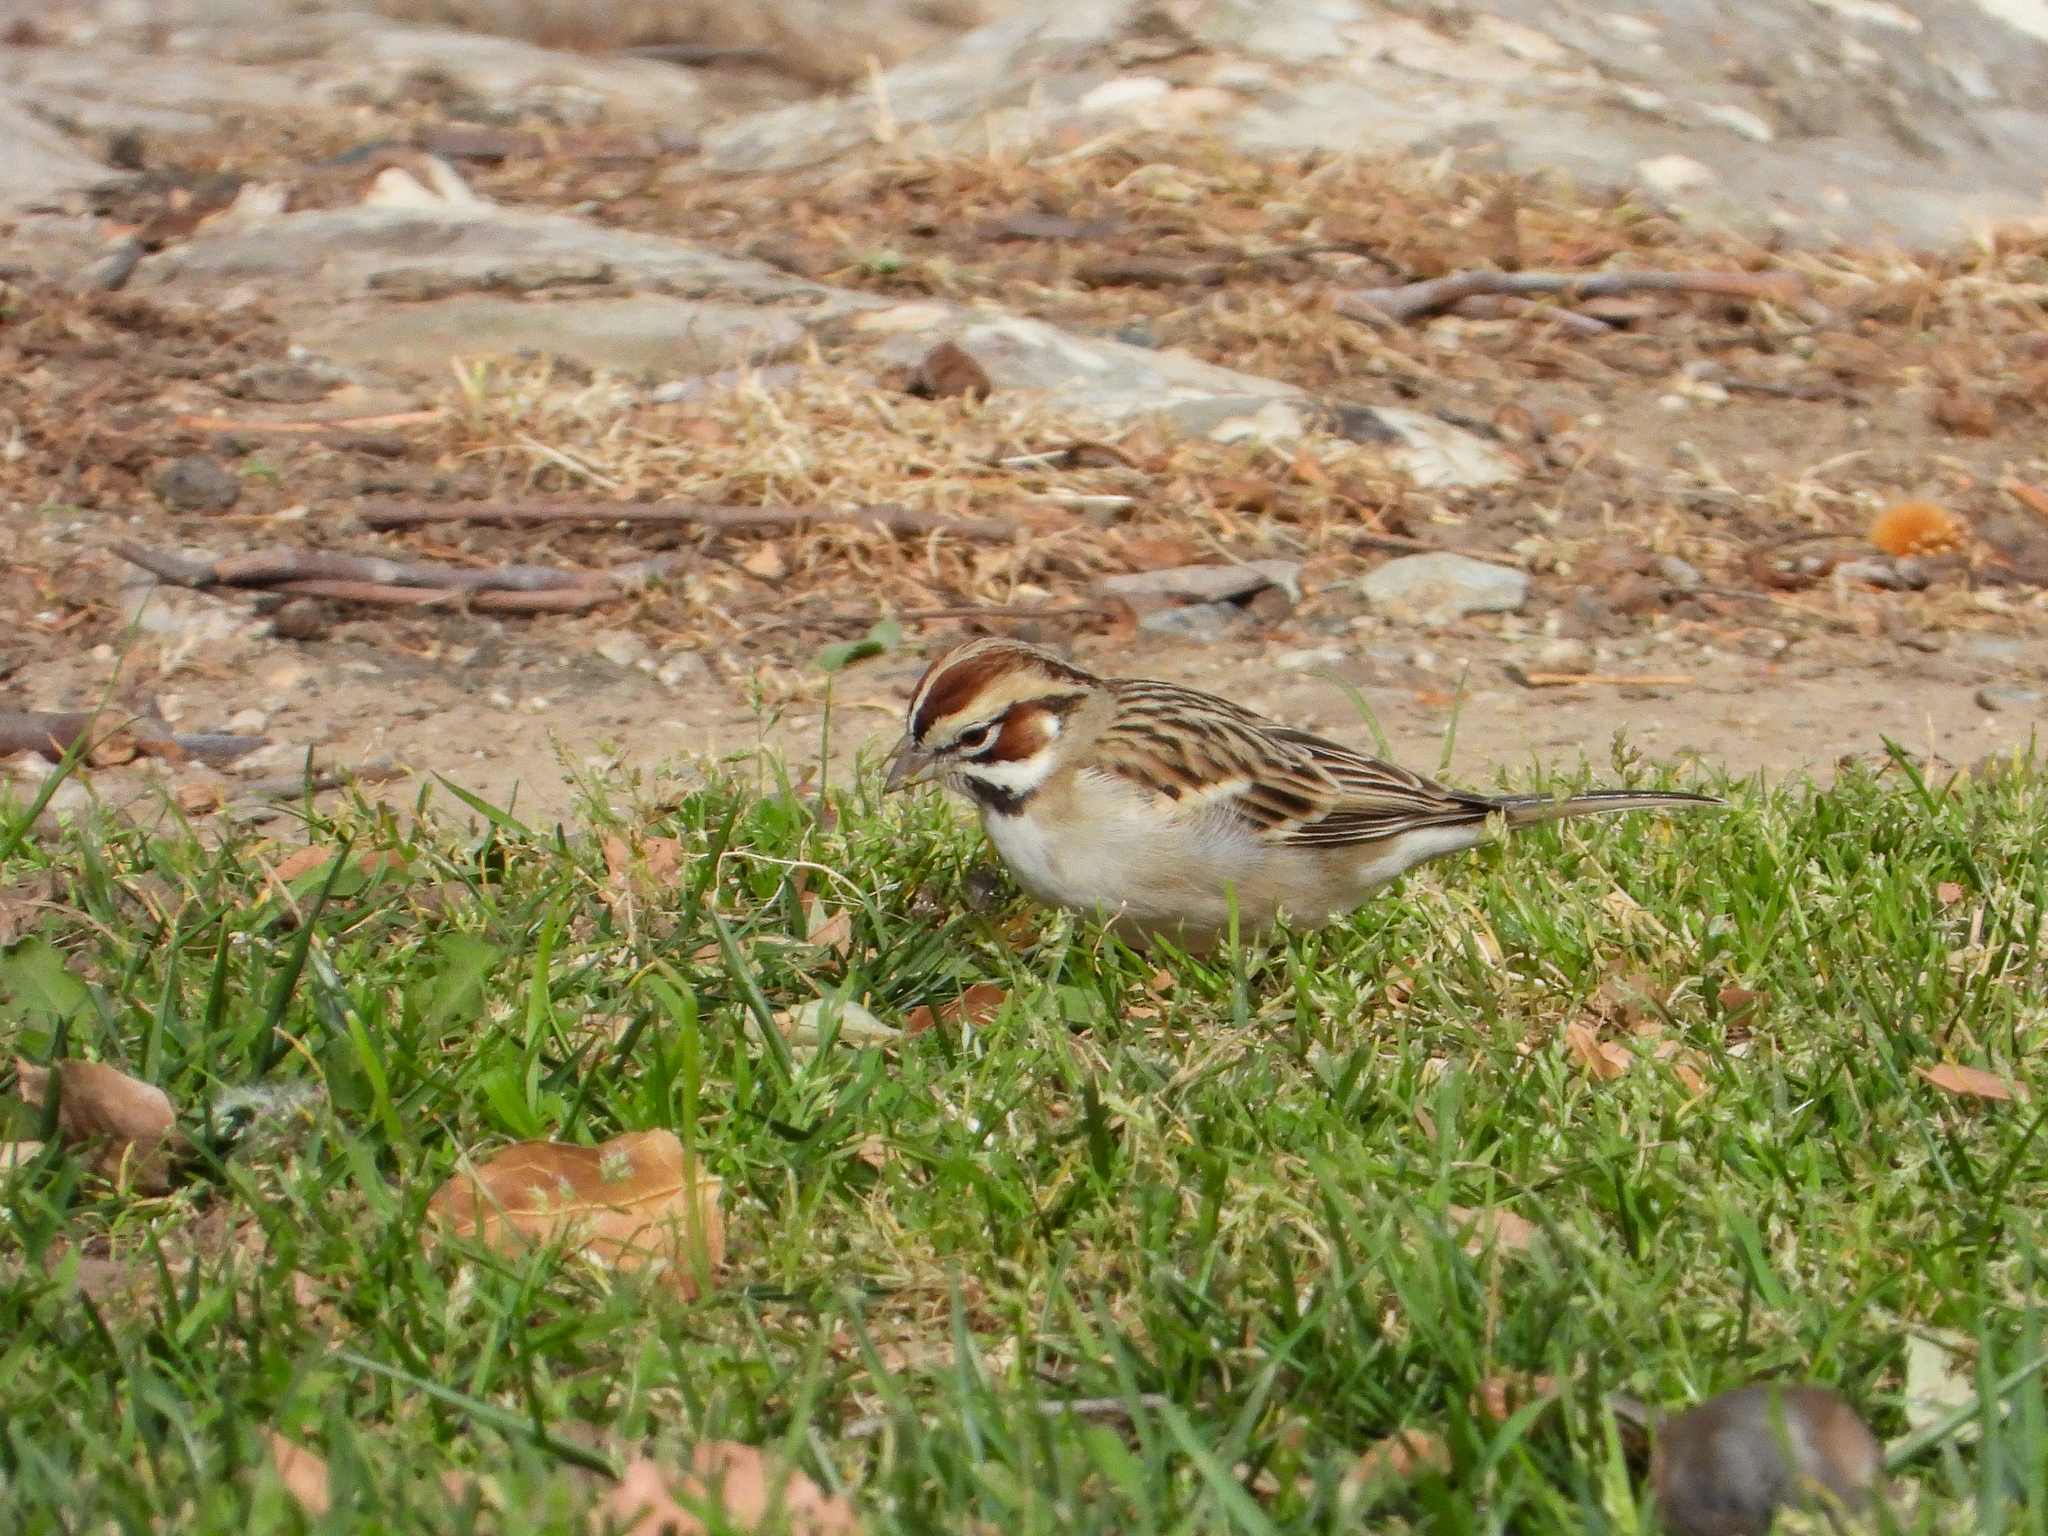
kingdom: Animalia
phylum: Chordata
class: Aves
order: Passeriformes
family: Passerellidae
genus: Chondestes
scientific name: Chondestes grammacus
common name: Lark sparrow
